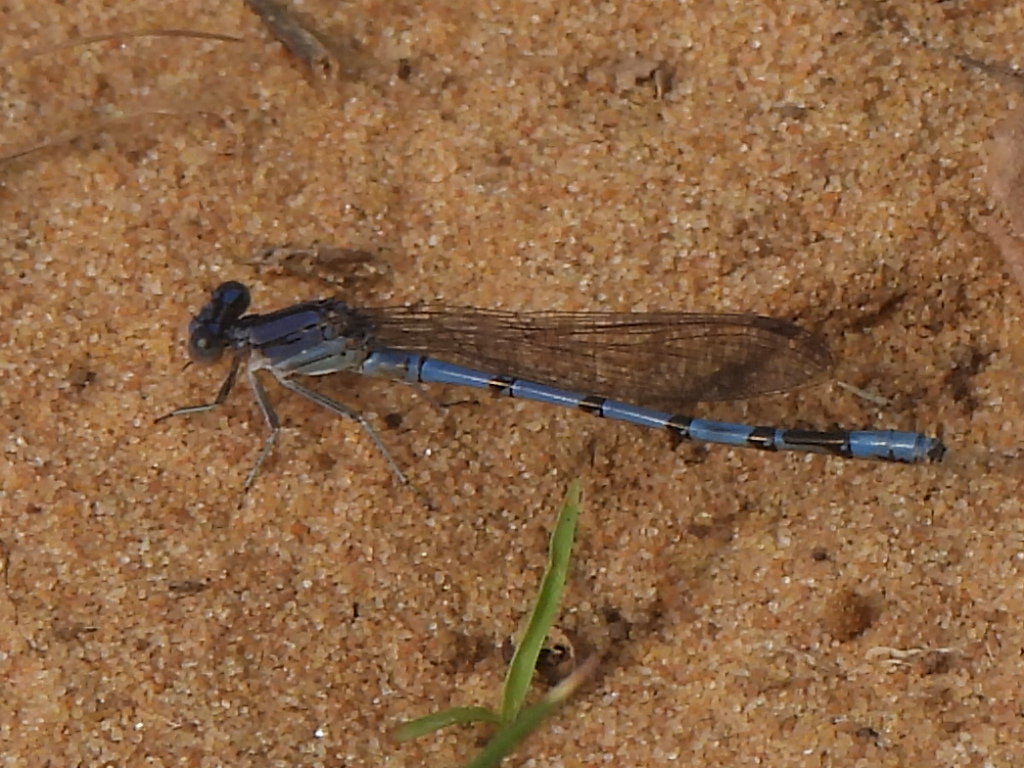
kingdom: Animalia
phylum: Arthropoda
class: Insecta
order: Odonata
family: Coenagrionidae
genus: Argia
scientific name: Argia nahuana
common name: Aztec dancer
